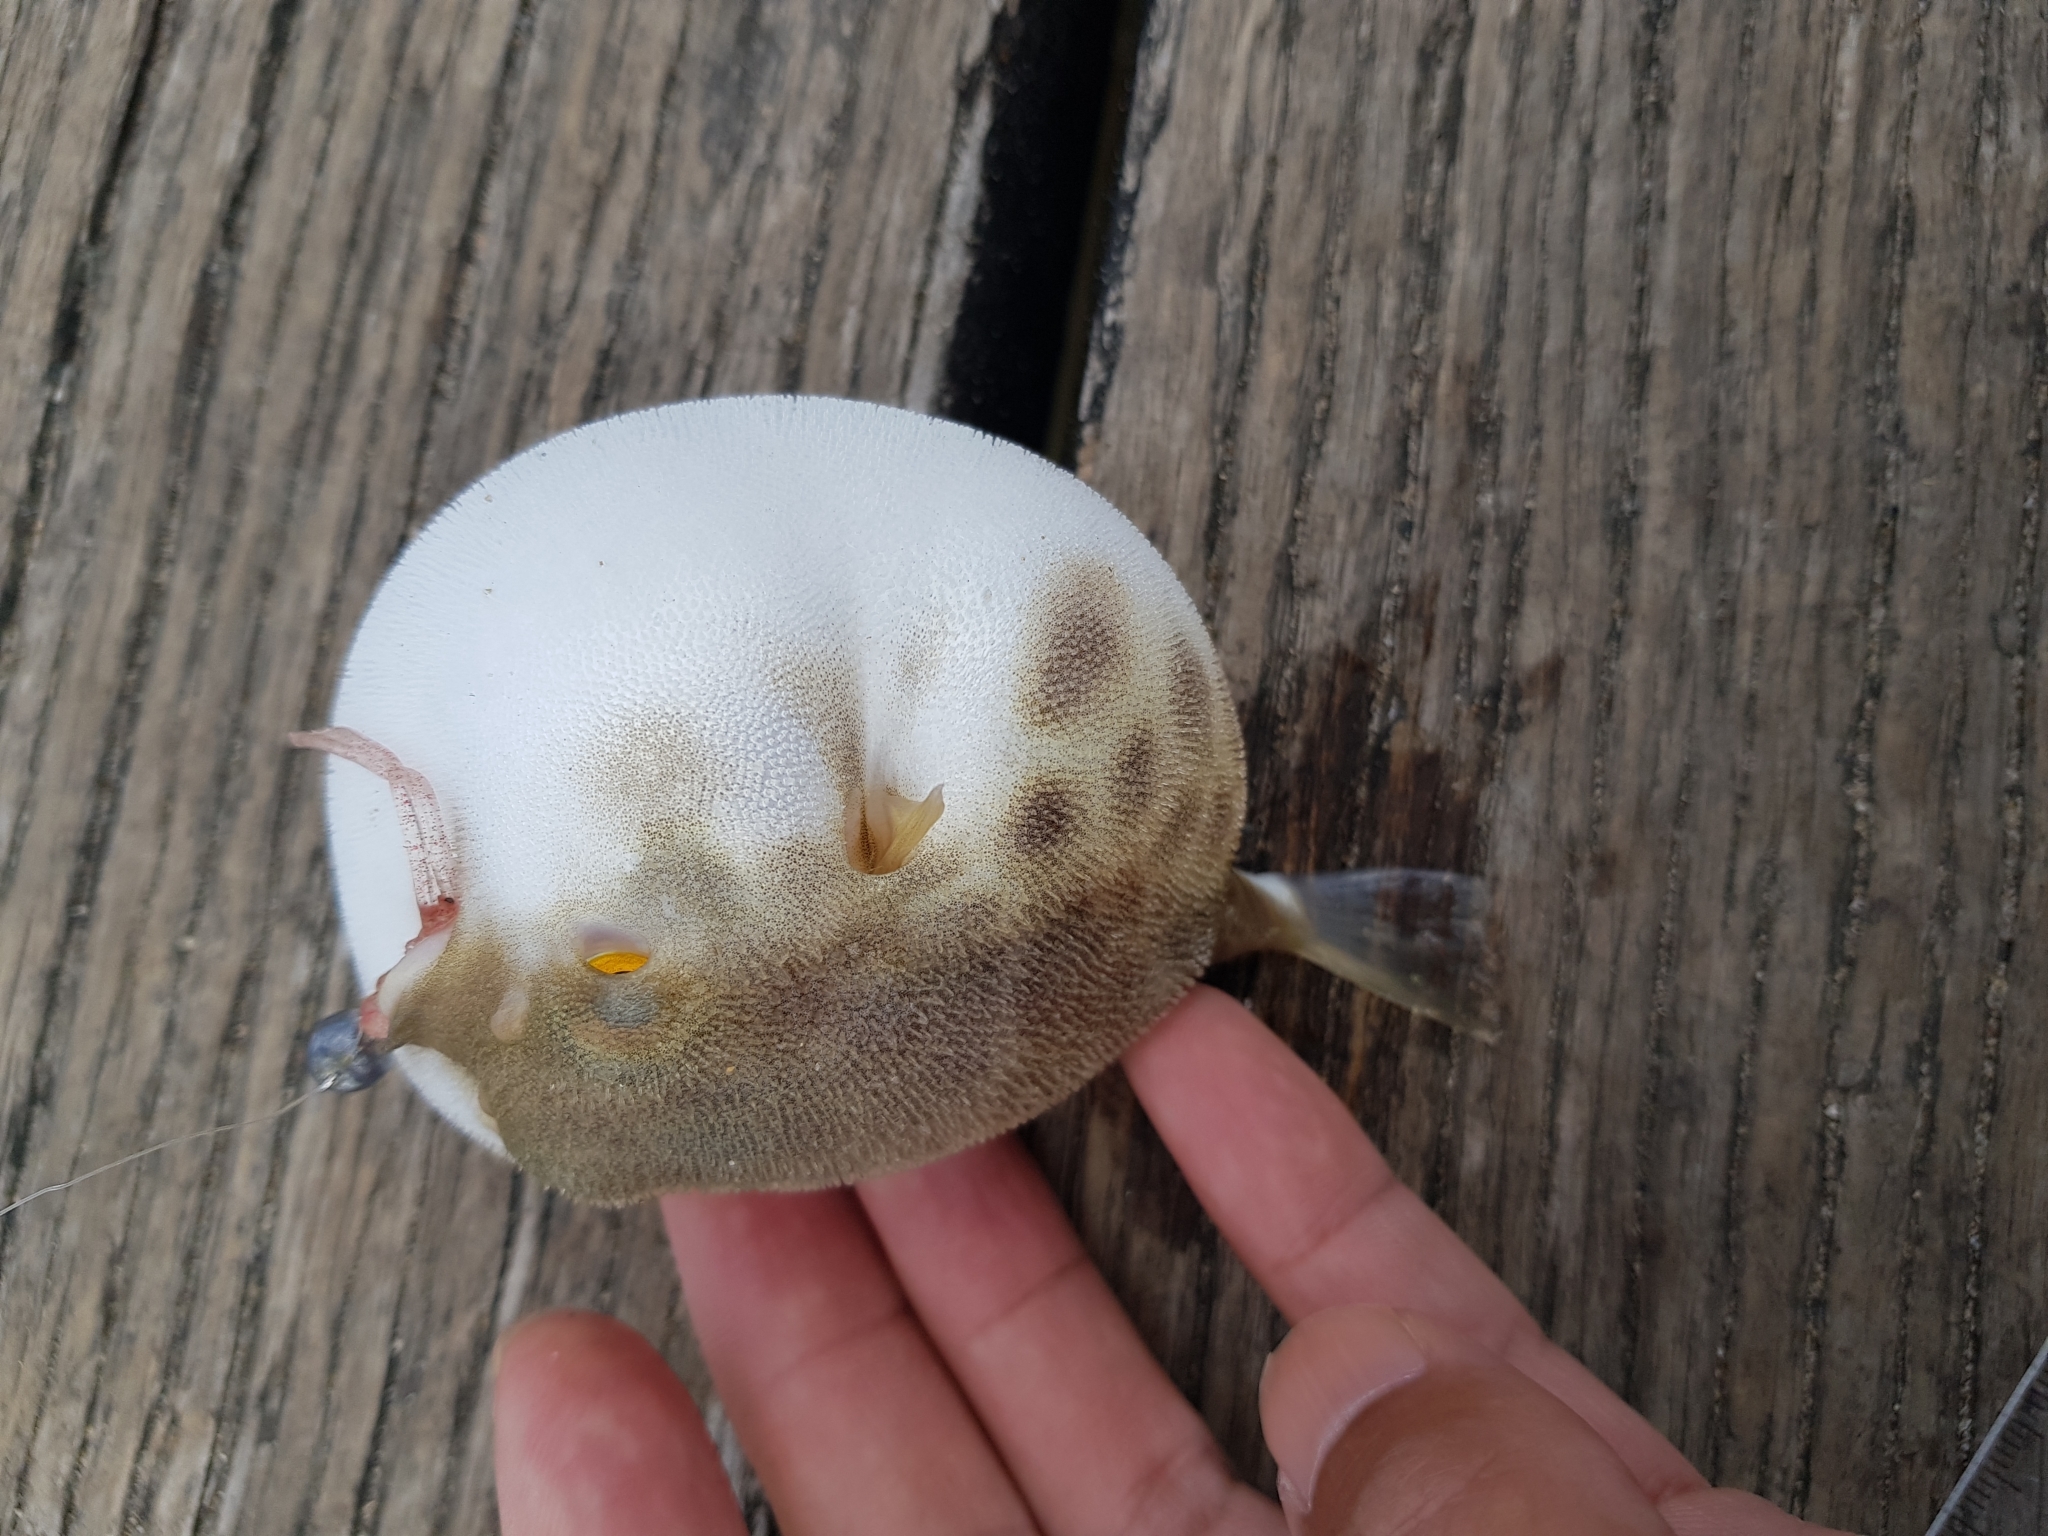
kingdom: Animalia
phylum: Chordata
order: Tetraodontiformes
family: Tetraodontidae
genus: Contusus
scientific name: Contusus brevicaudus
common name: Prickly toadfish
